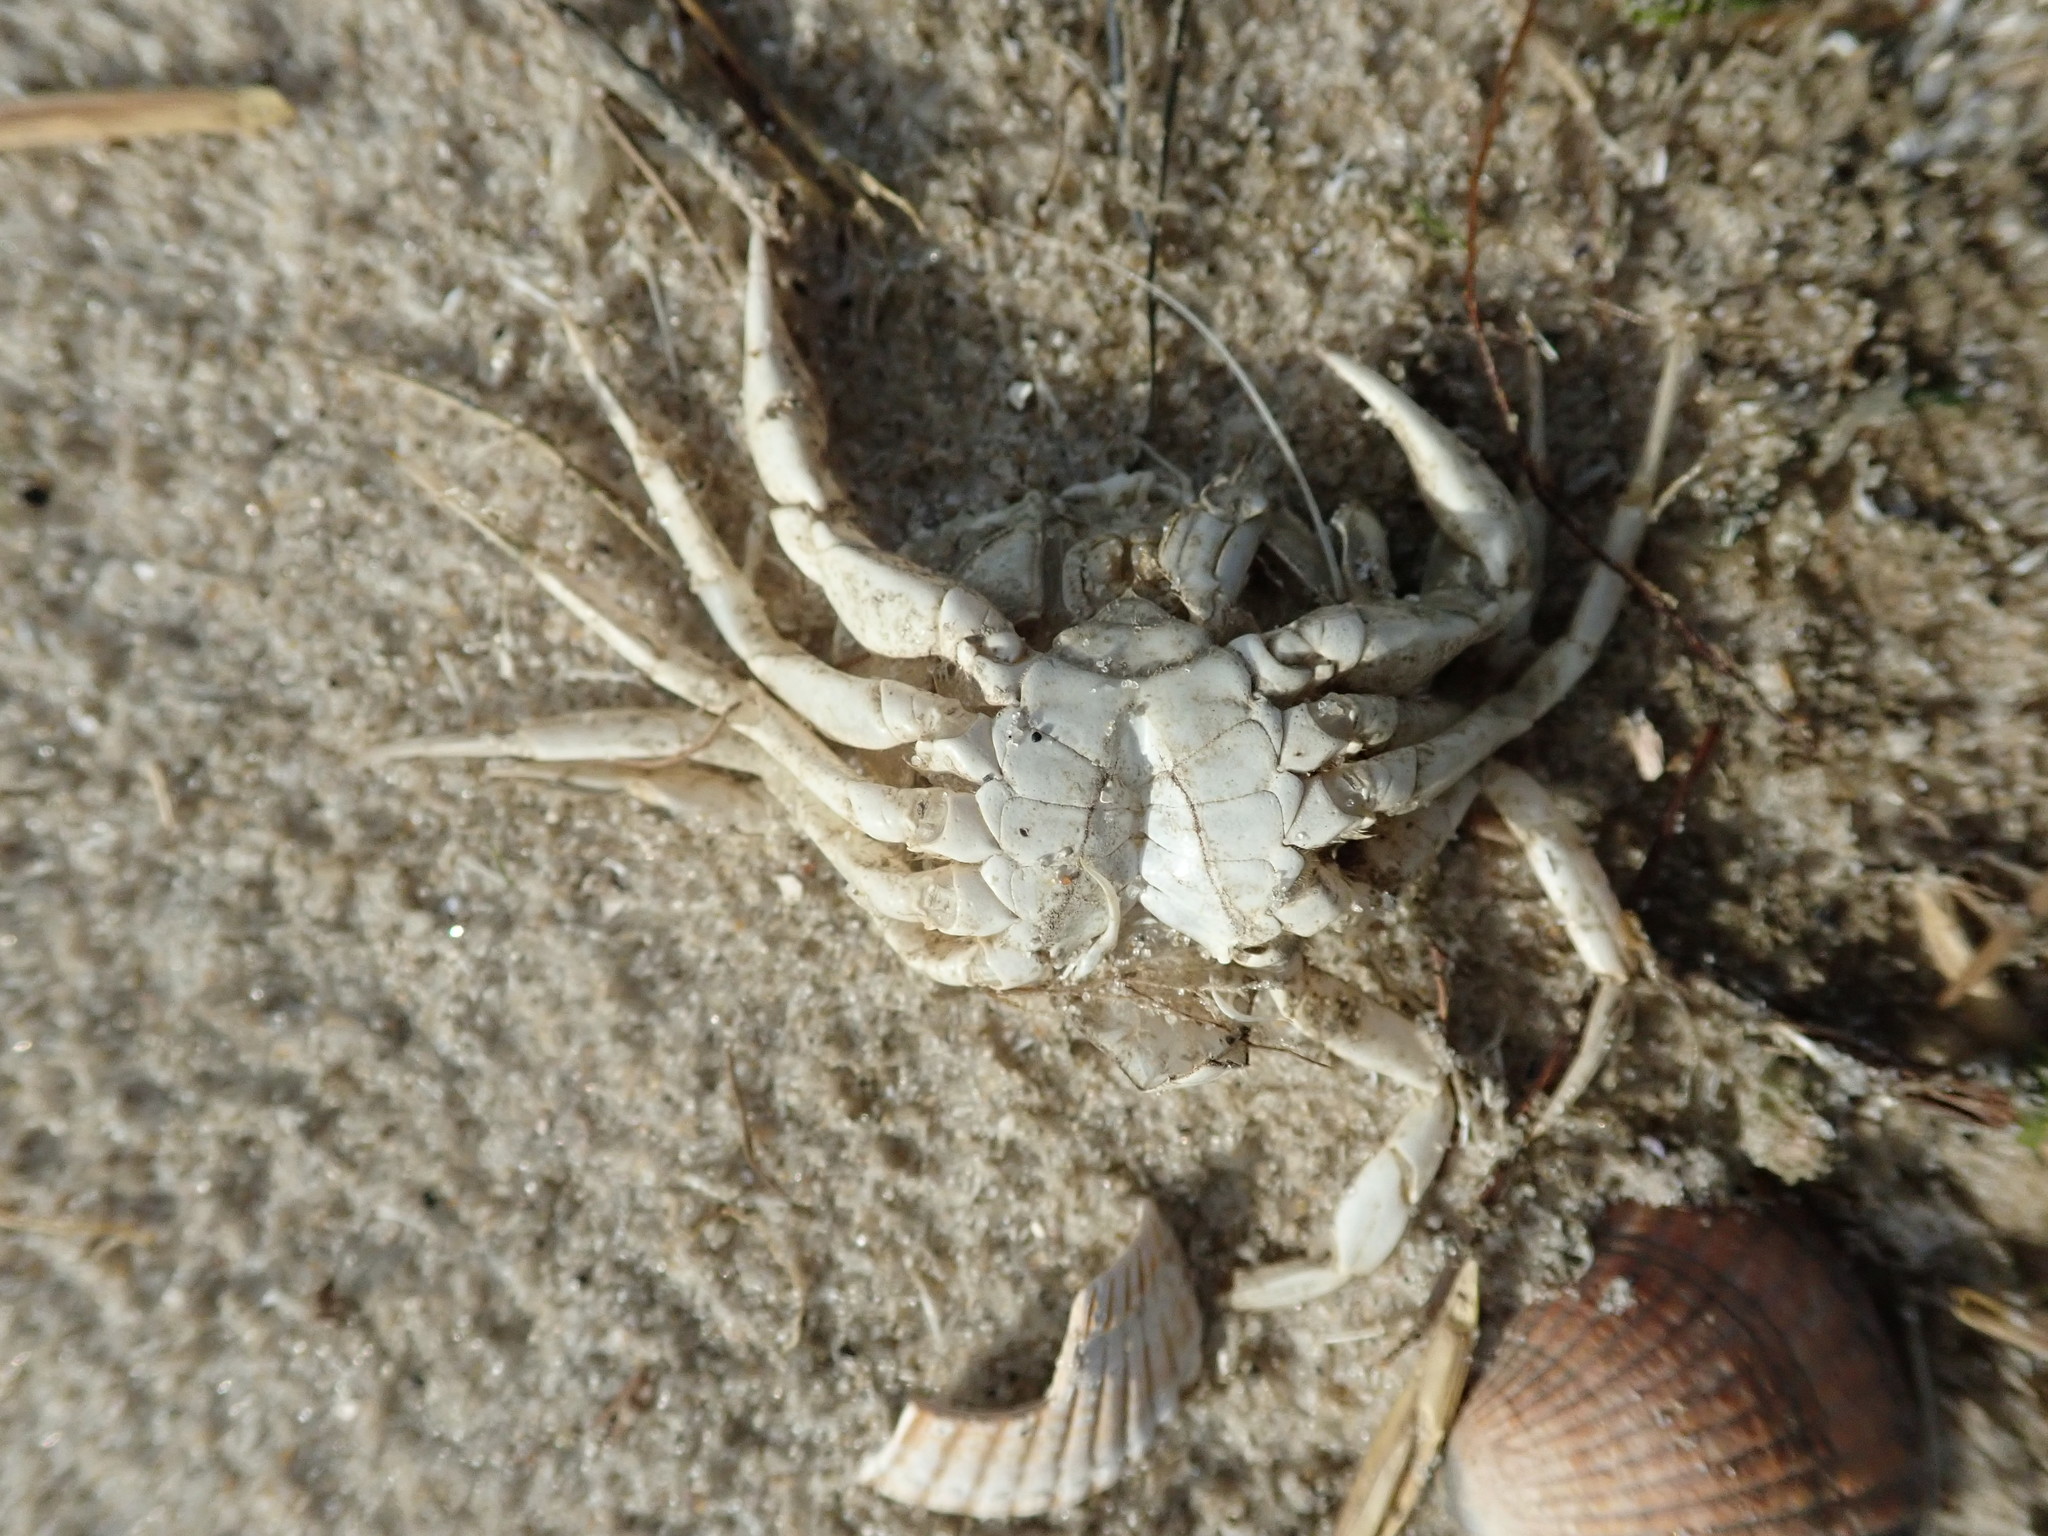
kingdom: Animalia
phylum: Arthropoda
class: Malacostraca
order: Decapoda
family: Carcinidae
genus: Carcinus
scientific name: Carcinus maenas
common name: European green crab
